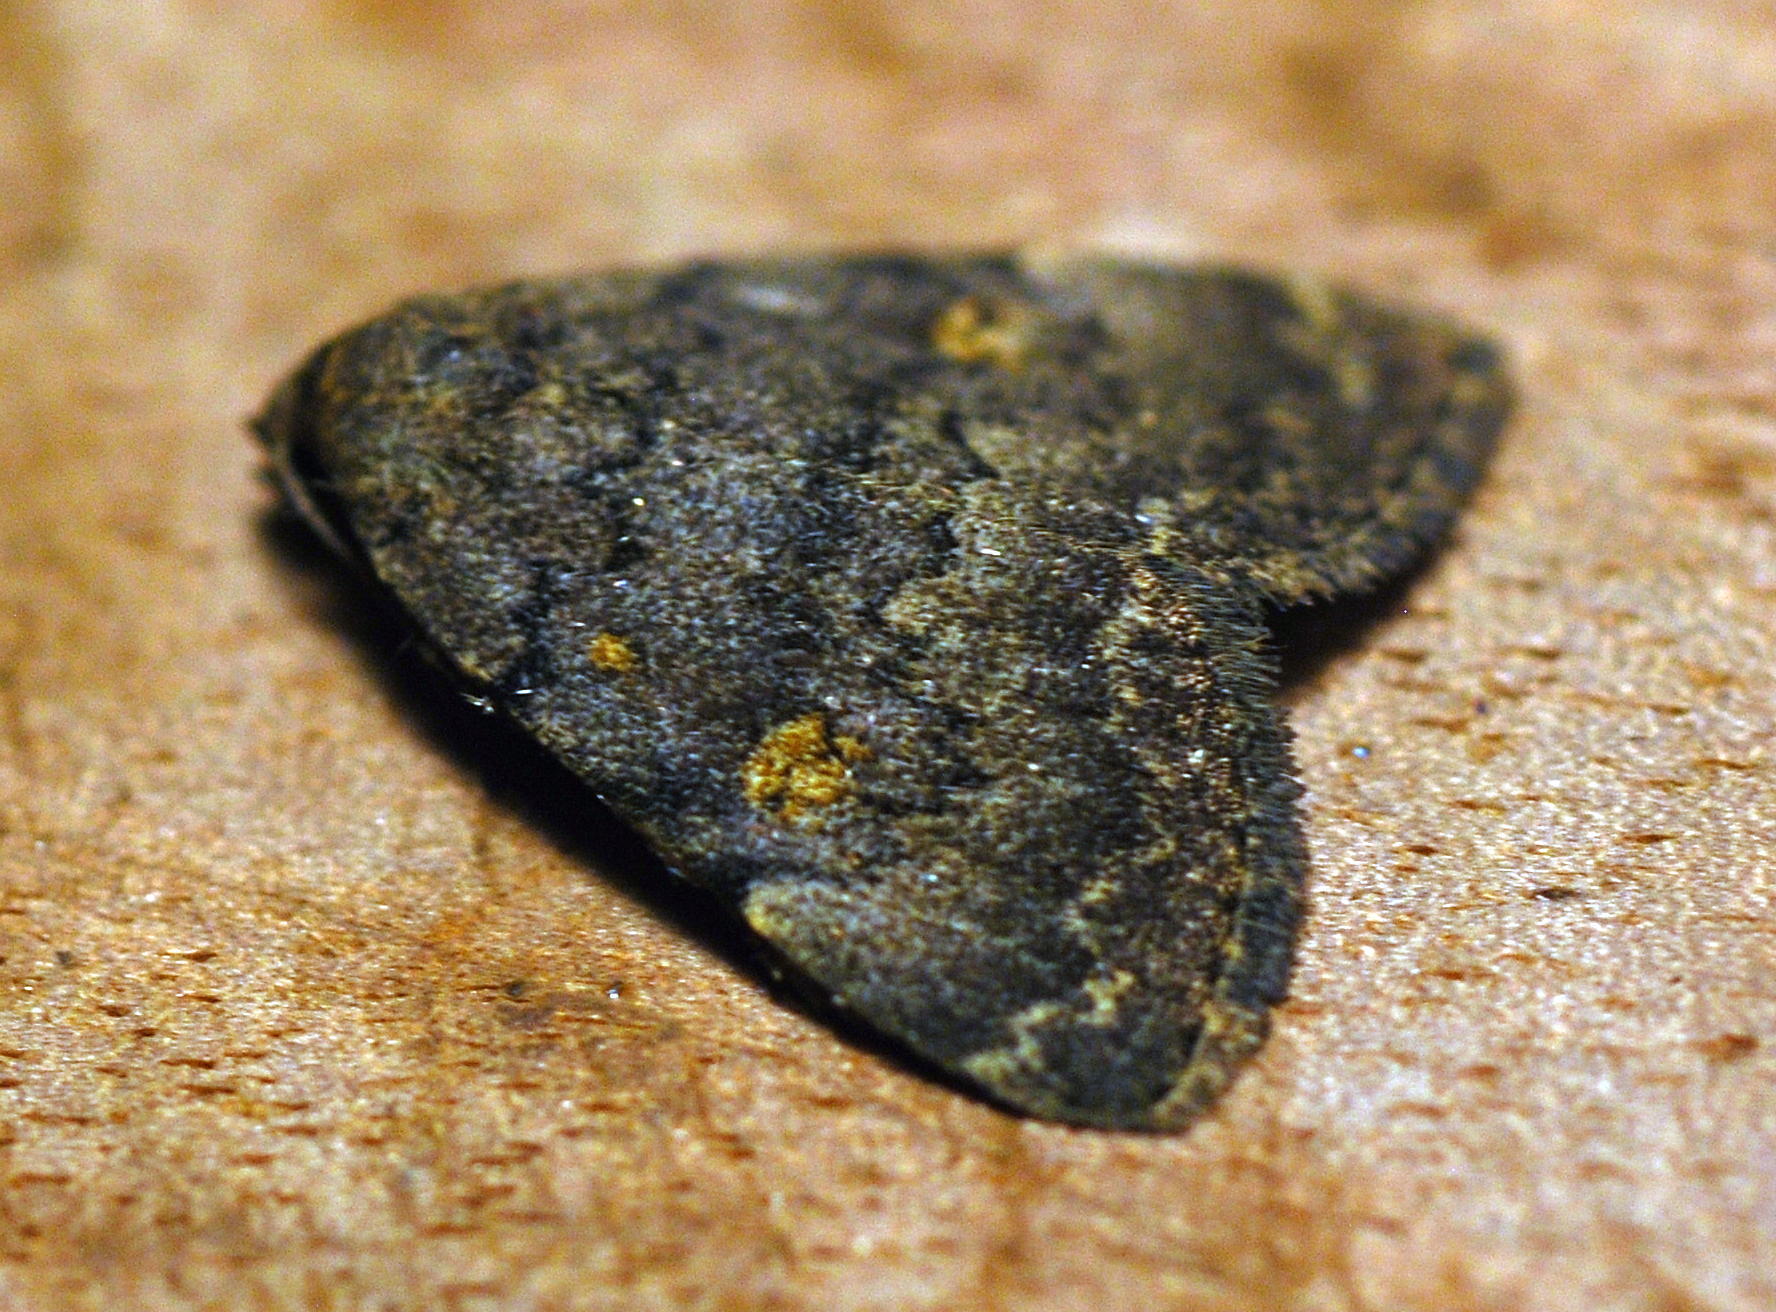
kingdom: Animalia
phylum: Arthropoda
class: Insecta
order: Lepidoptera
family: Erebidae
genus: Idia
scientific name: Idia aemula
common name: Common idia moth
